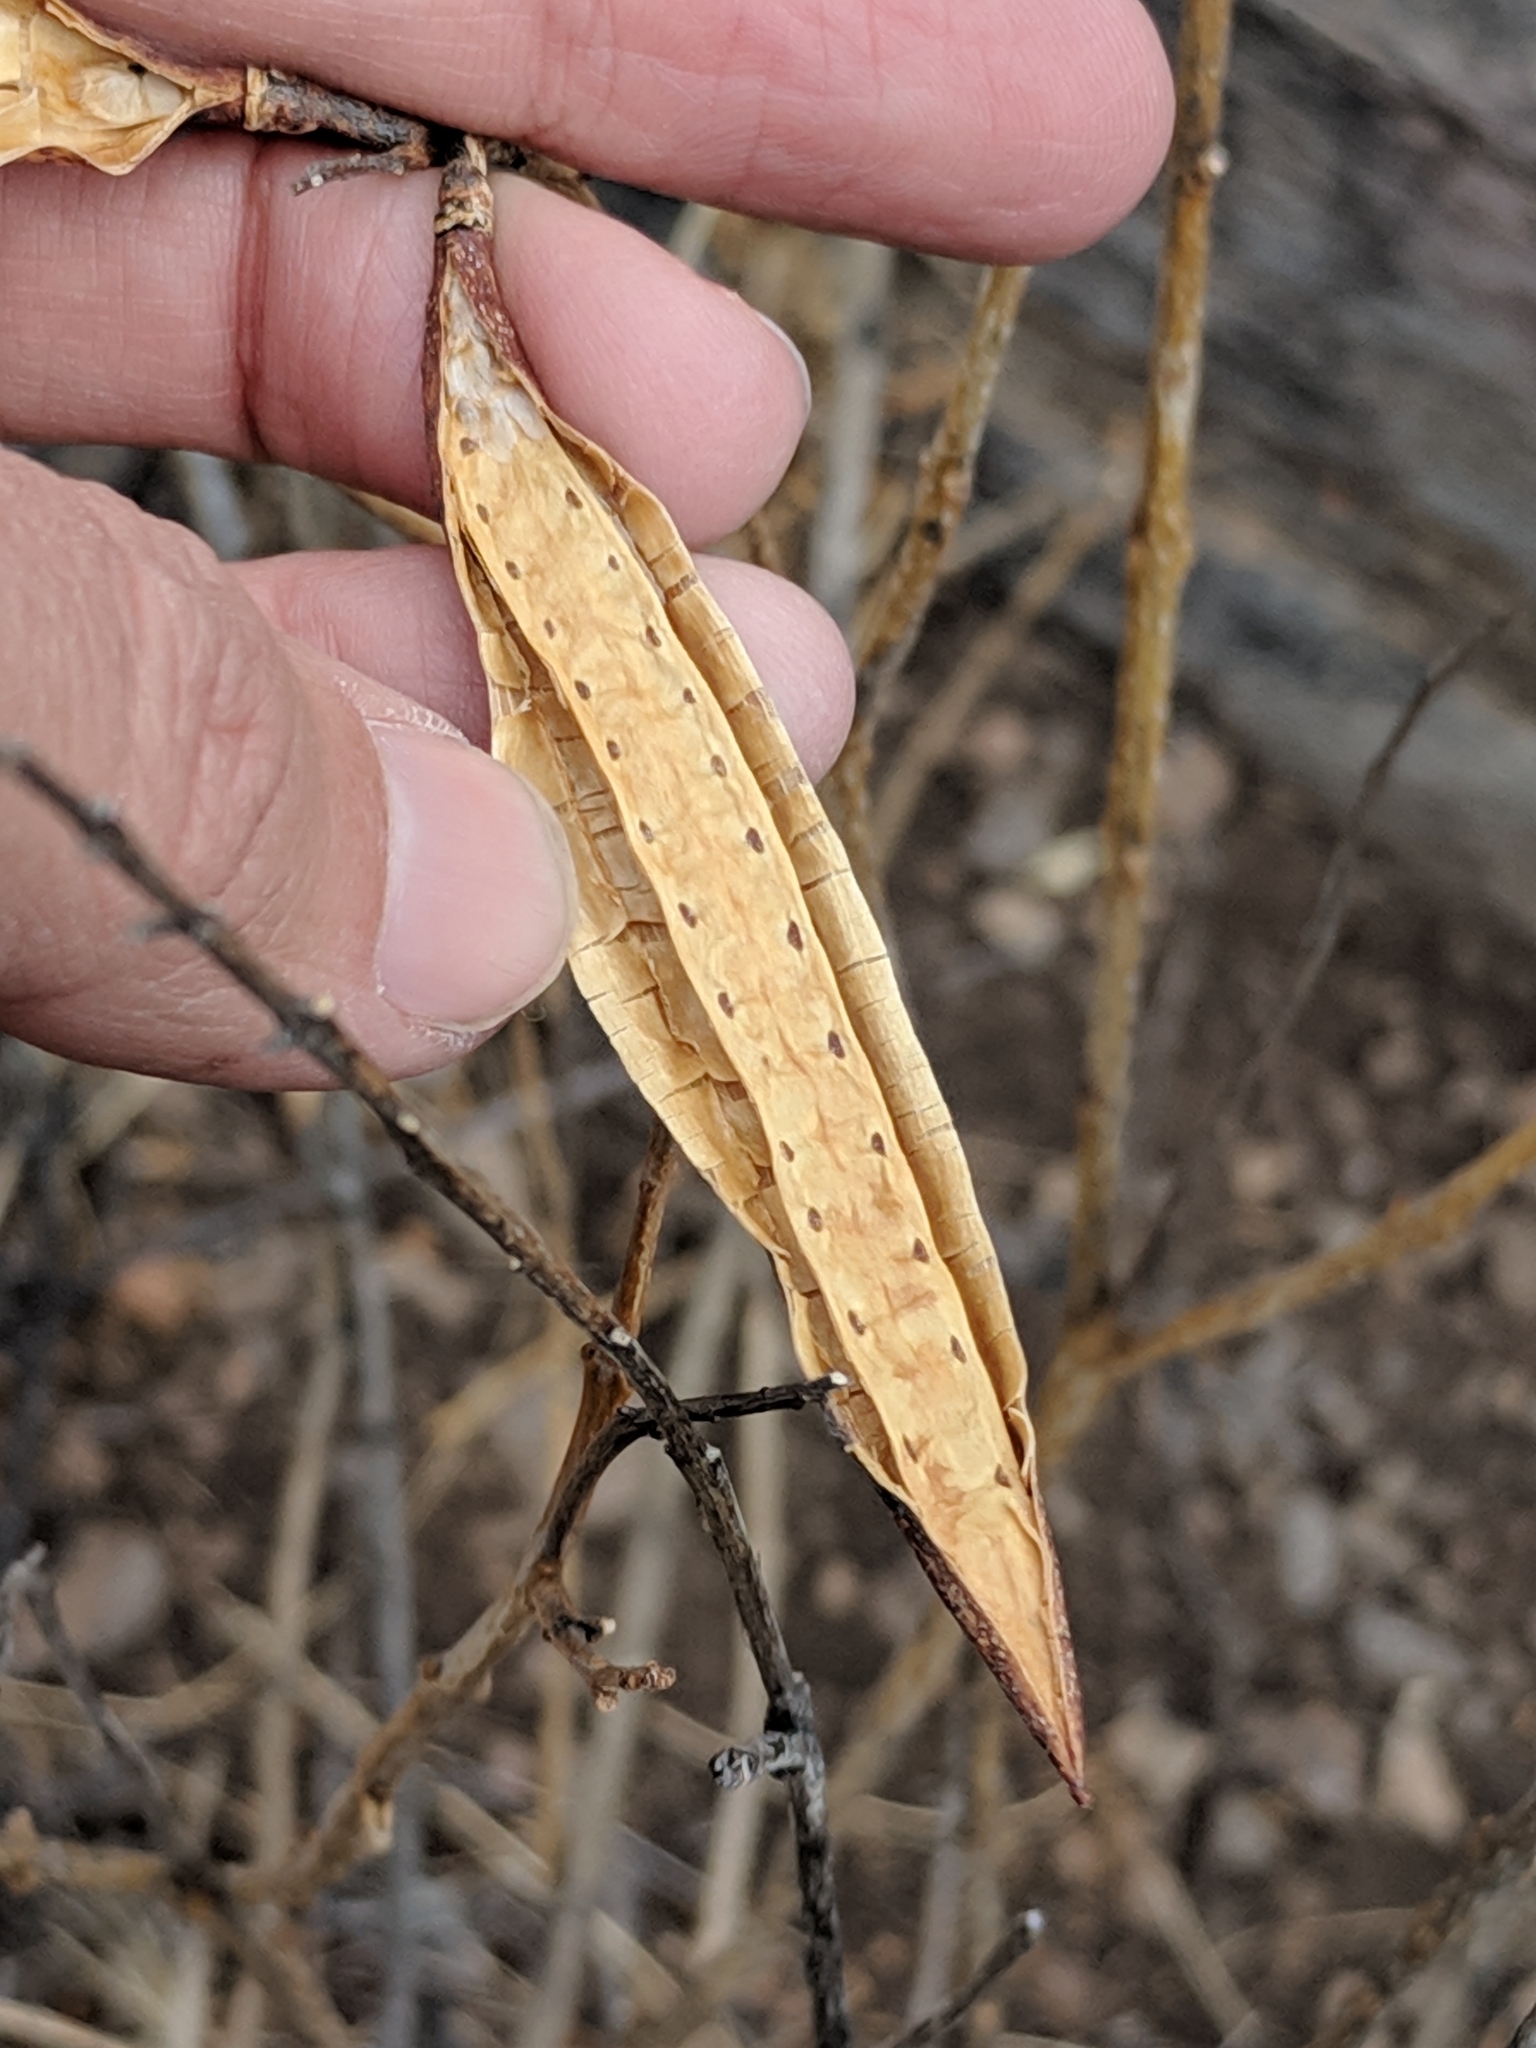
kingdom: Plantae
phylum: Tracheophyta
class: Magnoliopsida
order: Lamiales
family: Bignoniaceae
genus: Tecoma
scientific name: Tecoma stans
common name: Yellow trumpetbush
